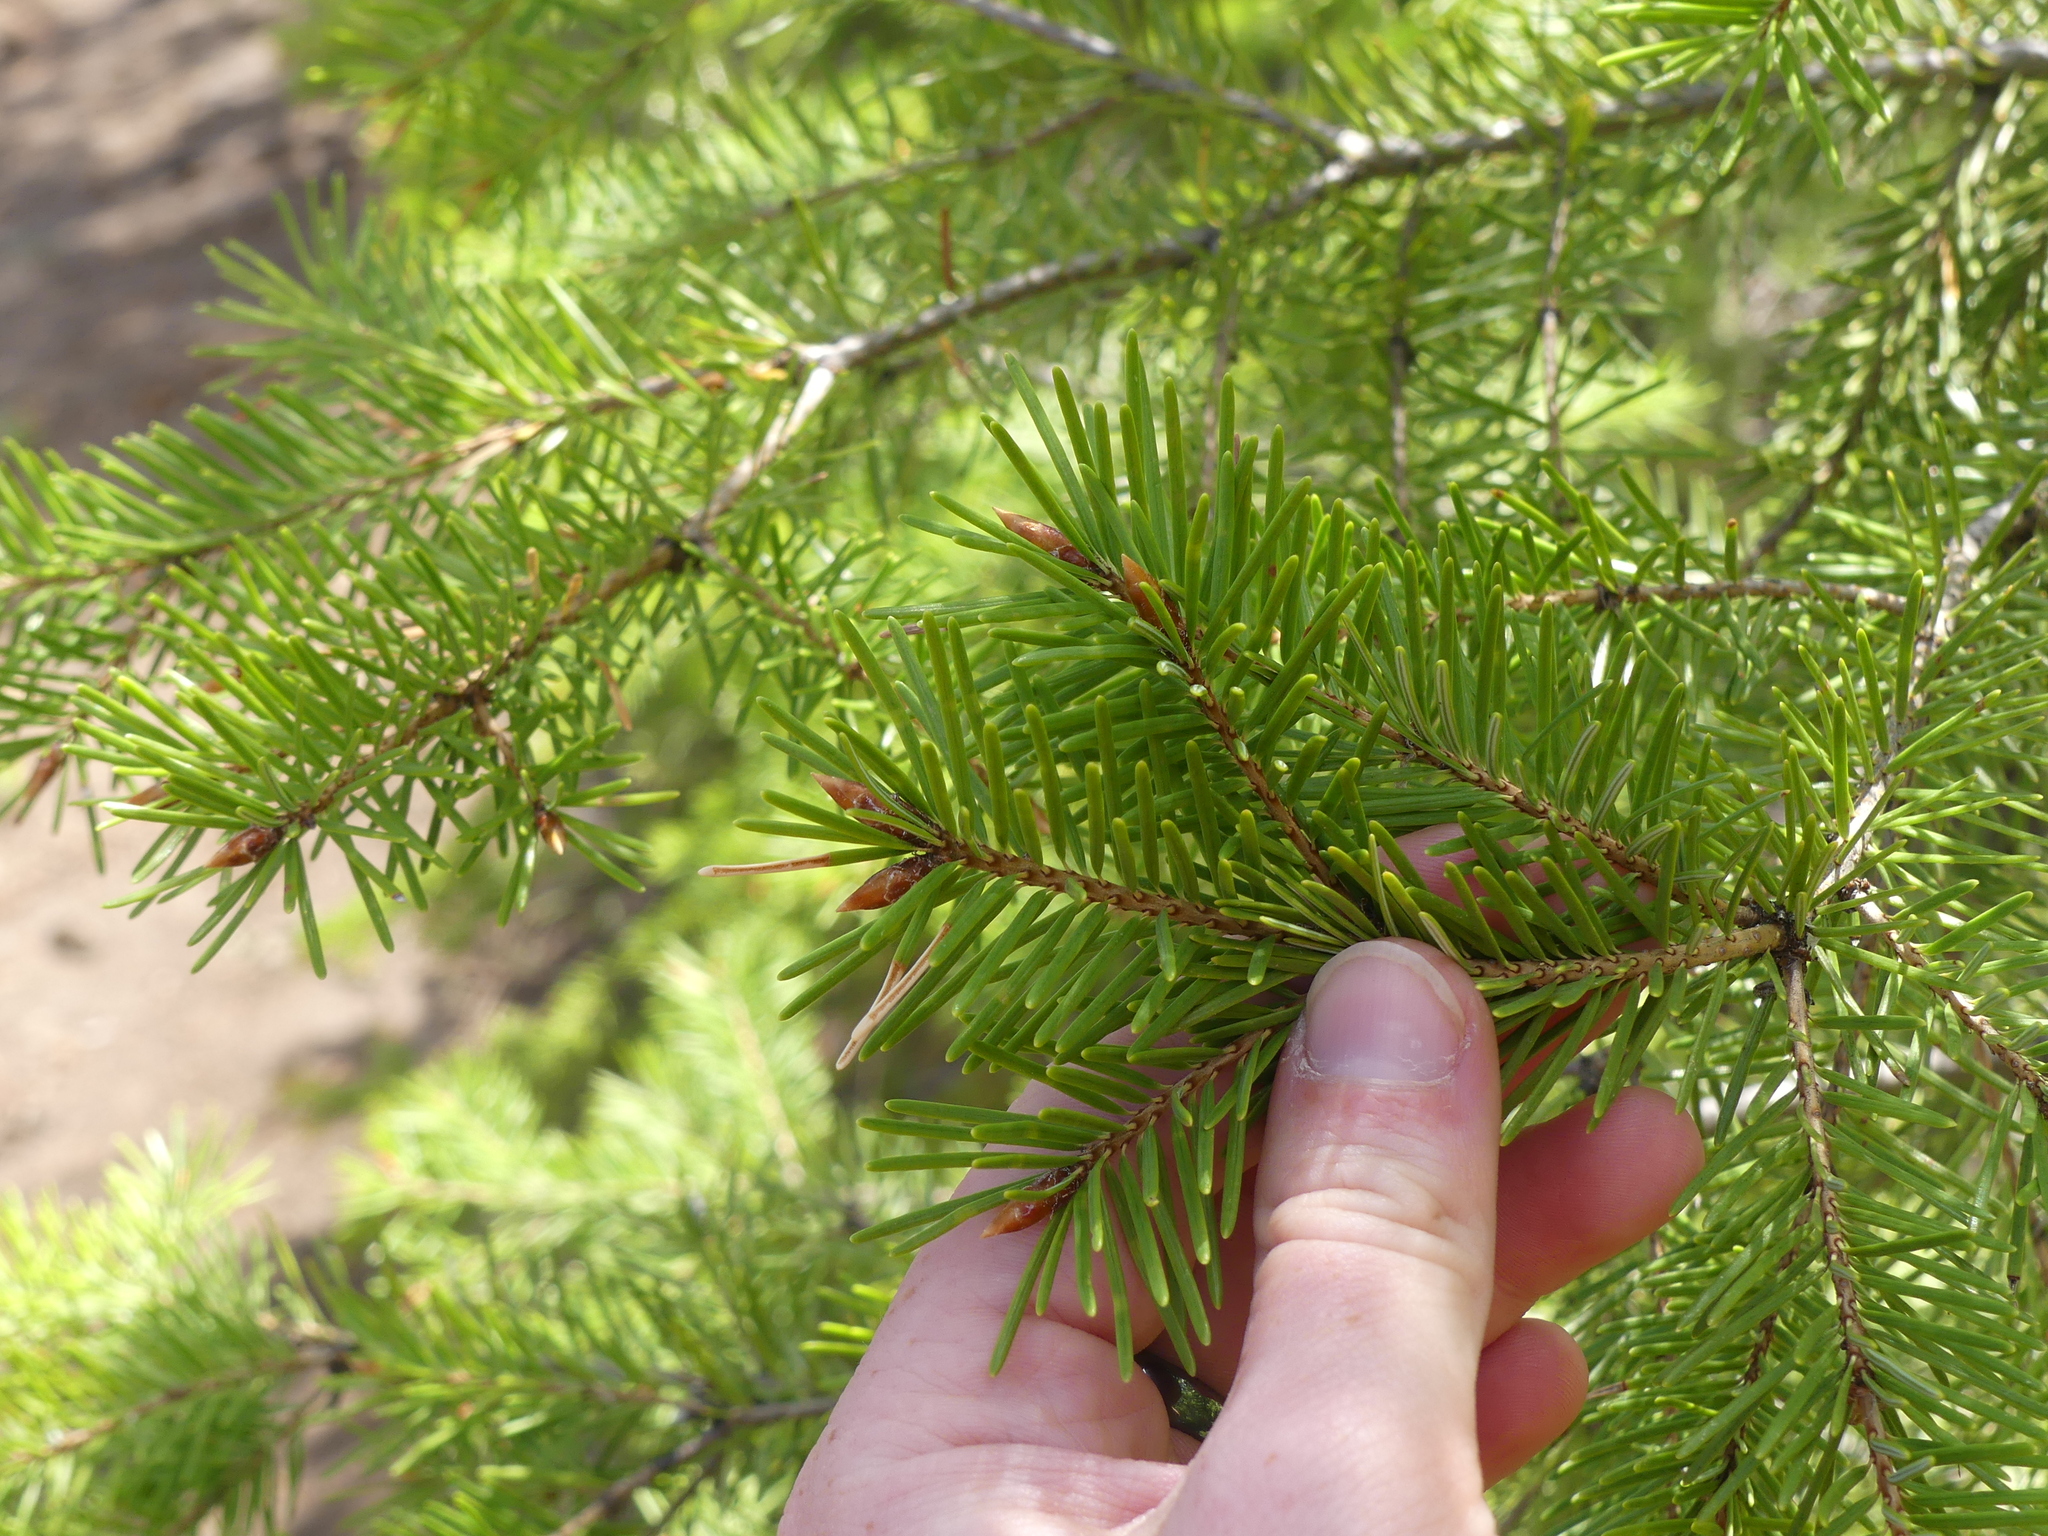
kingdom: Plantae
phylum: Tracheophyta
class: Pinopsida
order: Pinales
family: Pinaceae
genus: Pseudotsuga
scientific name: Pseudotsuga menziesii
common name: Douglas fir
